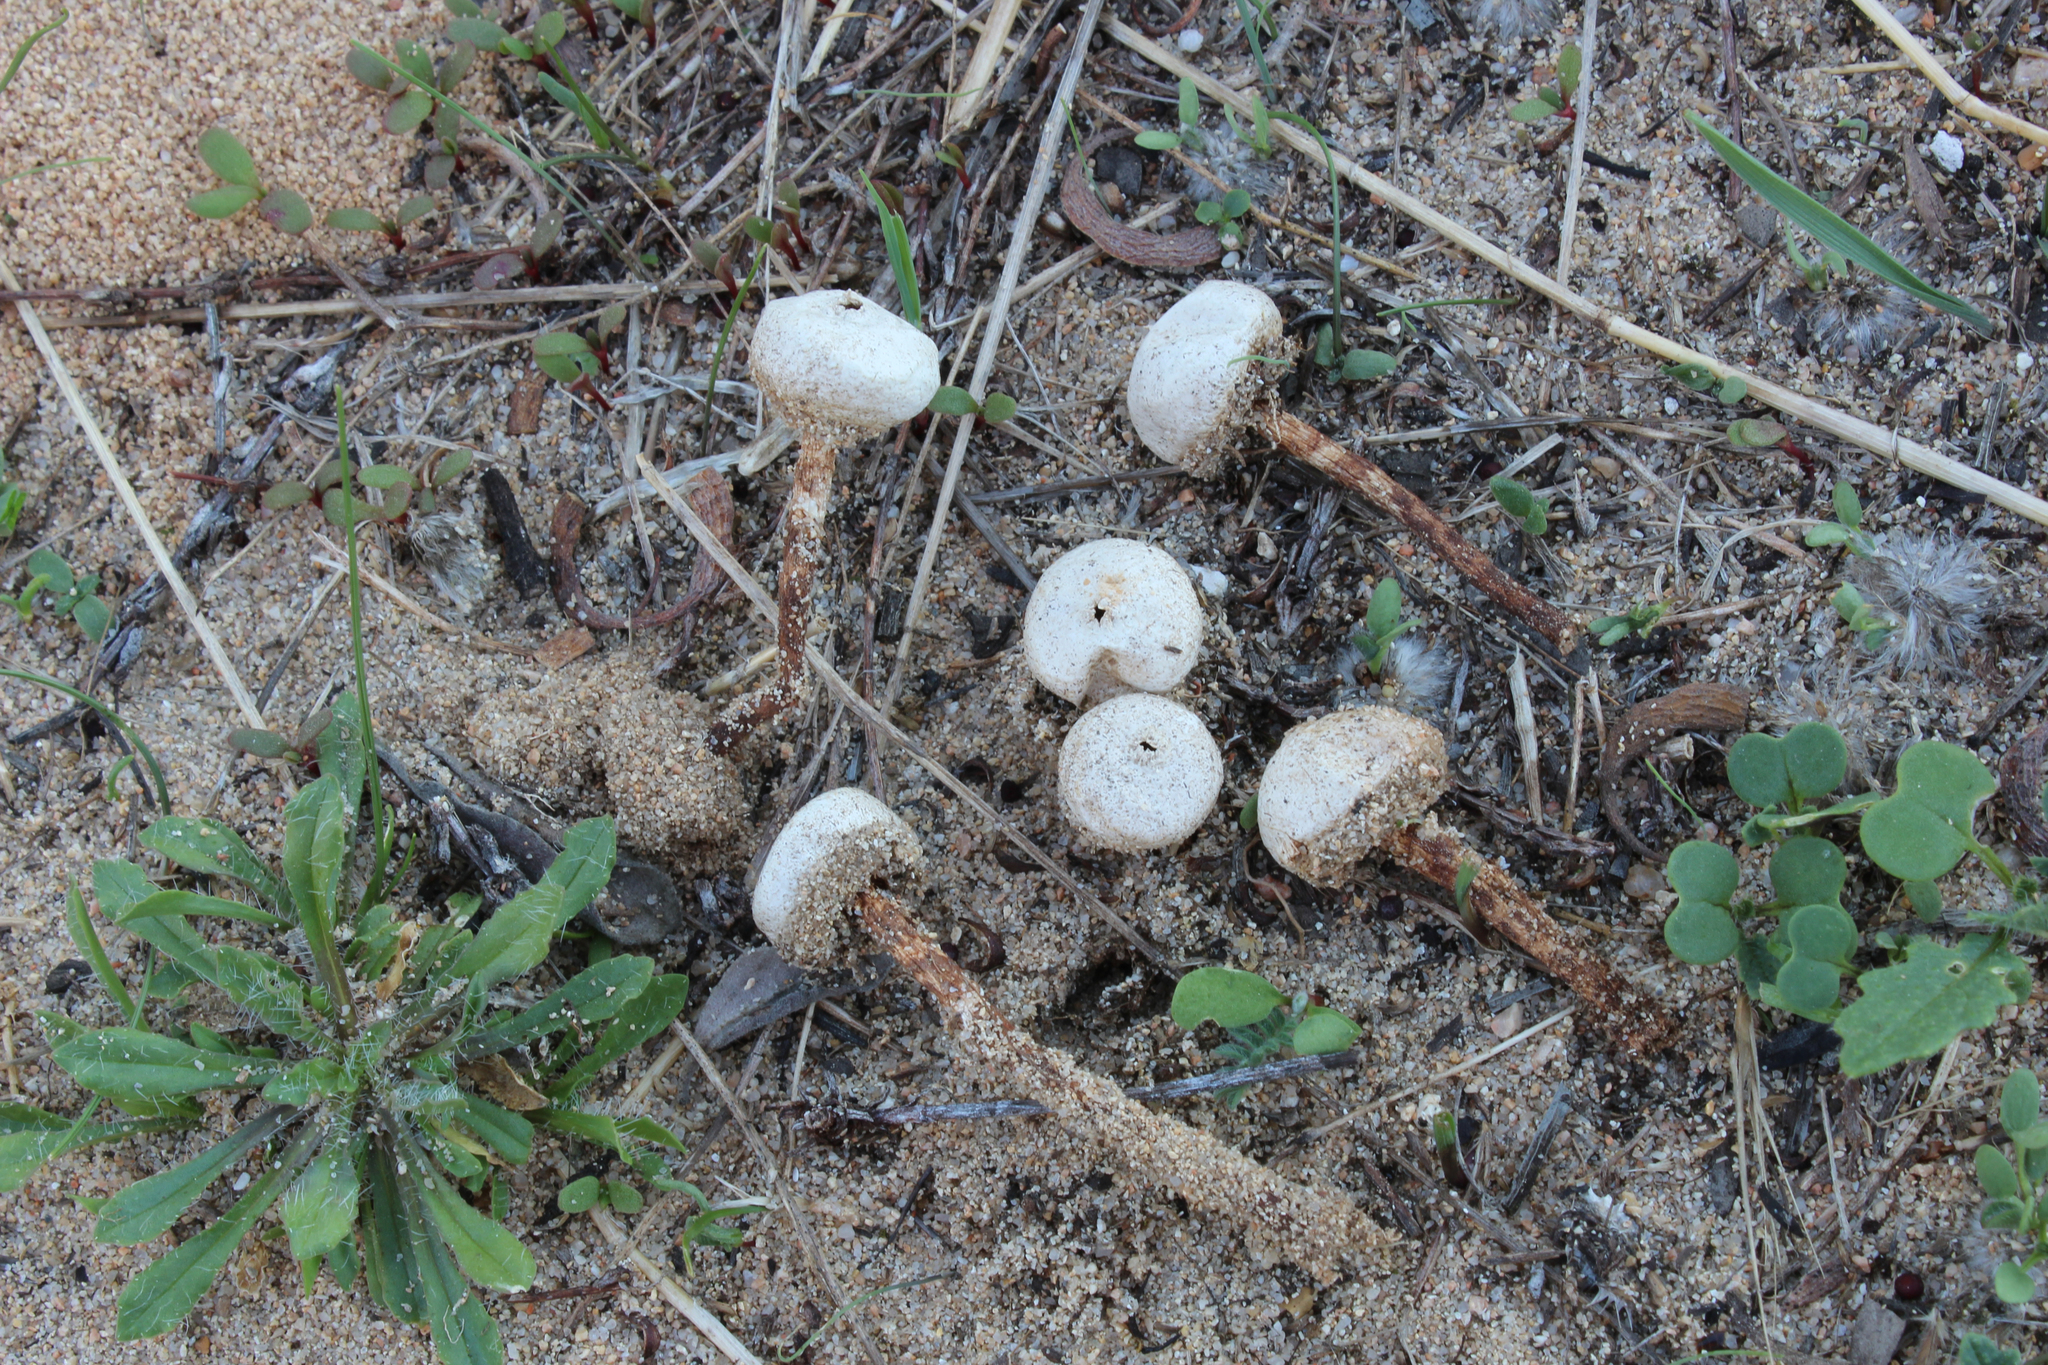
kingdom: Fungi
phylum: Basidiomycota
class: Agaricomycetes
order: Agaricales
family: Agaricaceae
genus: Tulostoma
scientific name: Tulostoma fimbriatum
